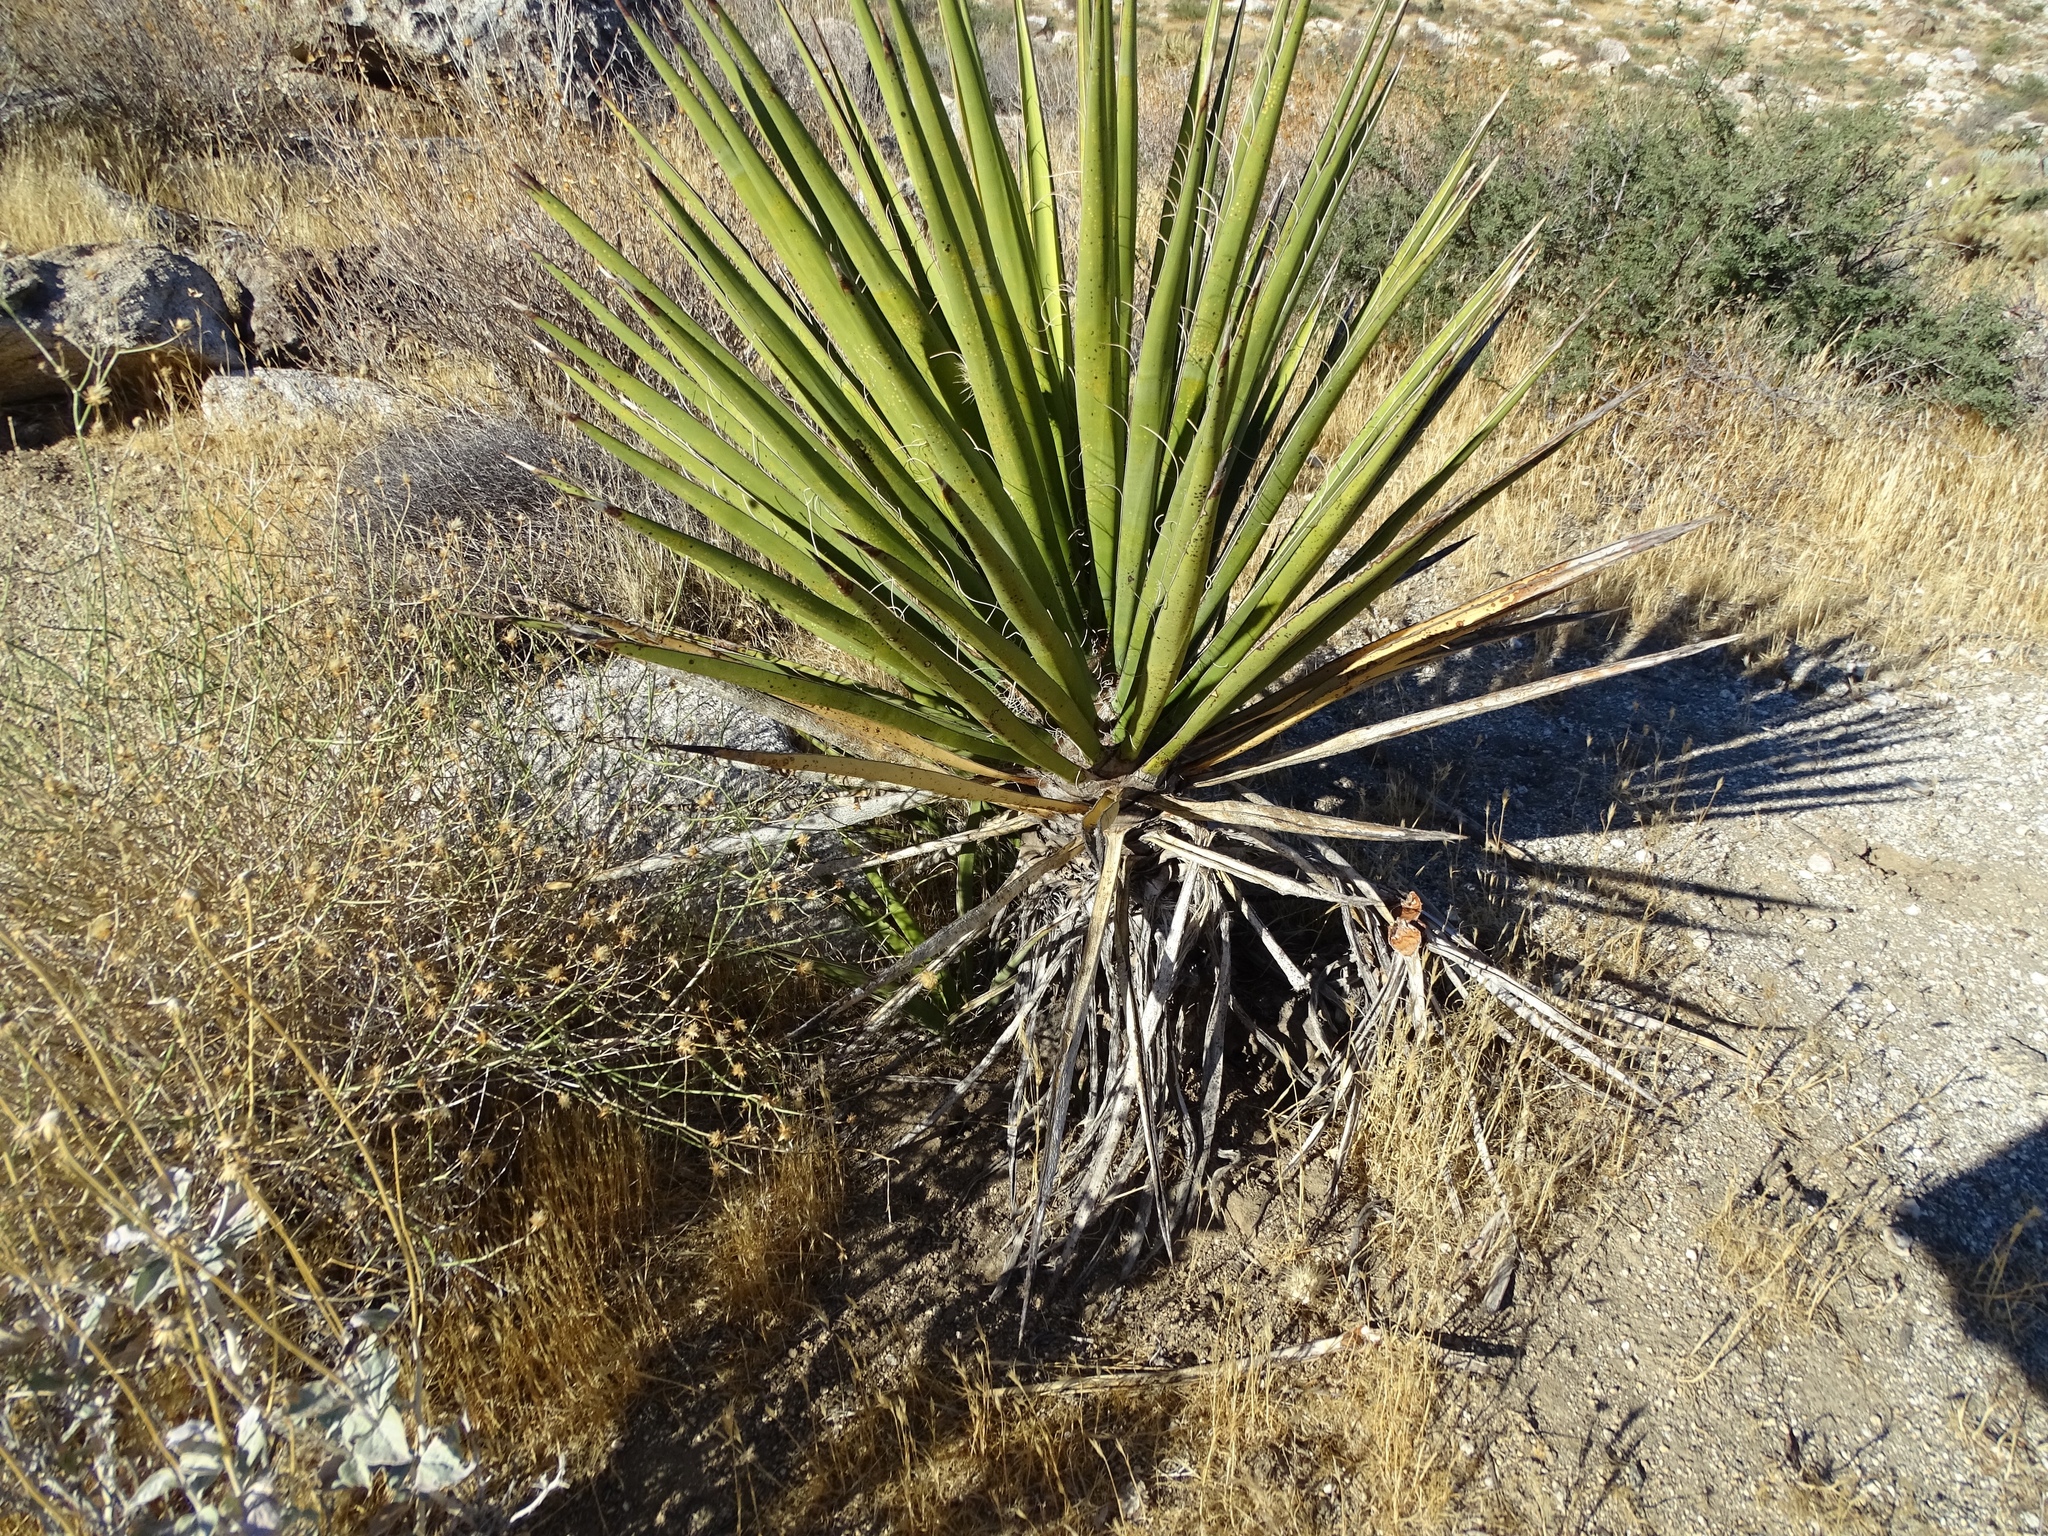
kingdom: Plantae
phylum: Tracheophyta
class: Liliopsida
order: Asparagales
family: Asparagaceae
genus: Yucca
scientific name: Yucca schidigera
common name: Mojave yucca
